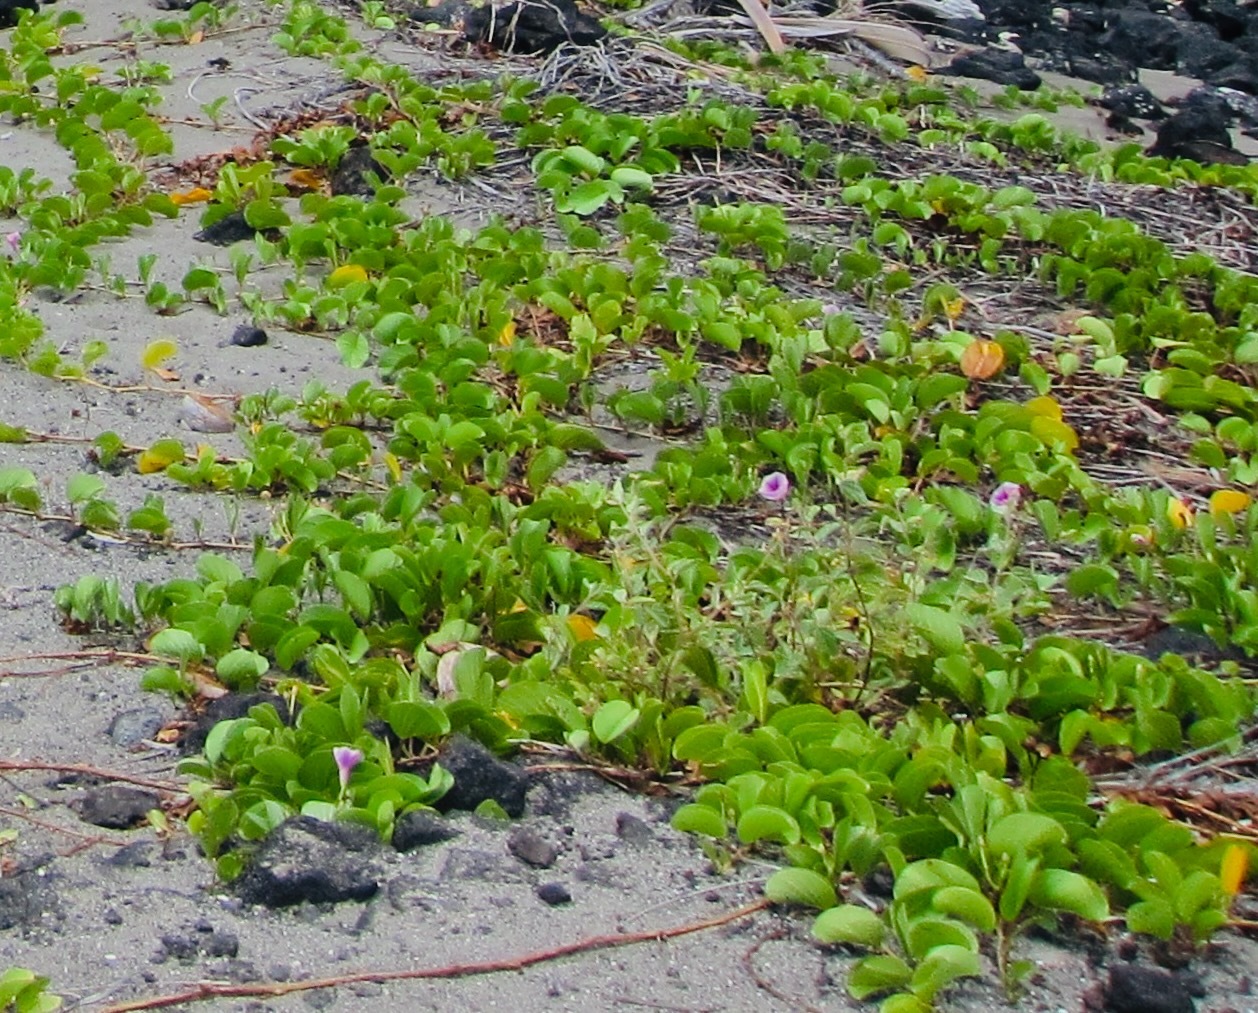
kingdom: Plantae
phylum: Tracheophyta
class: Magnoliopsida
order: Solanales
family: Convolvulaceae
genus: Ipomoea
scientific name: Ipomoea pes-caprae
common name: Beach morning glory
